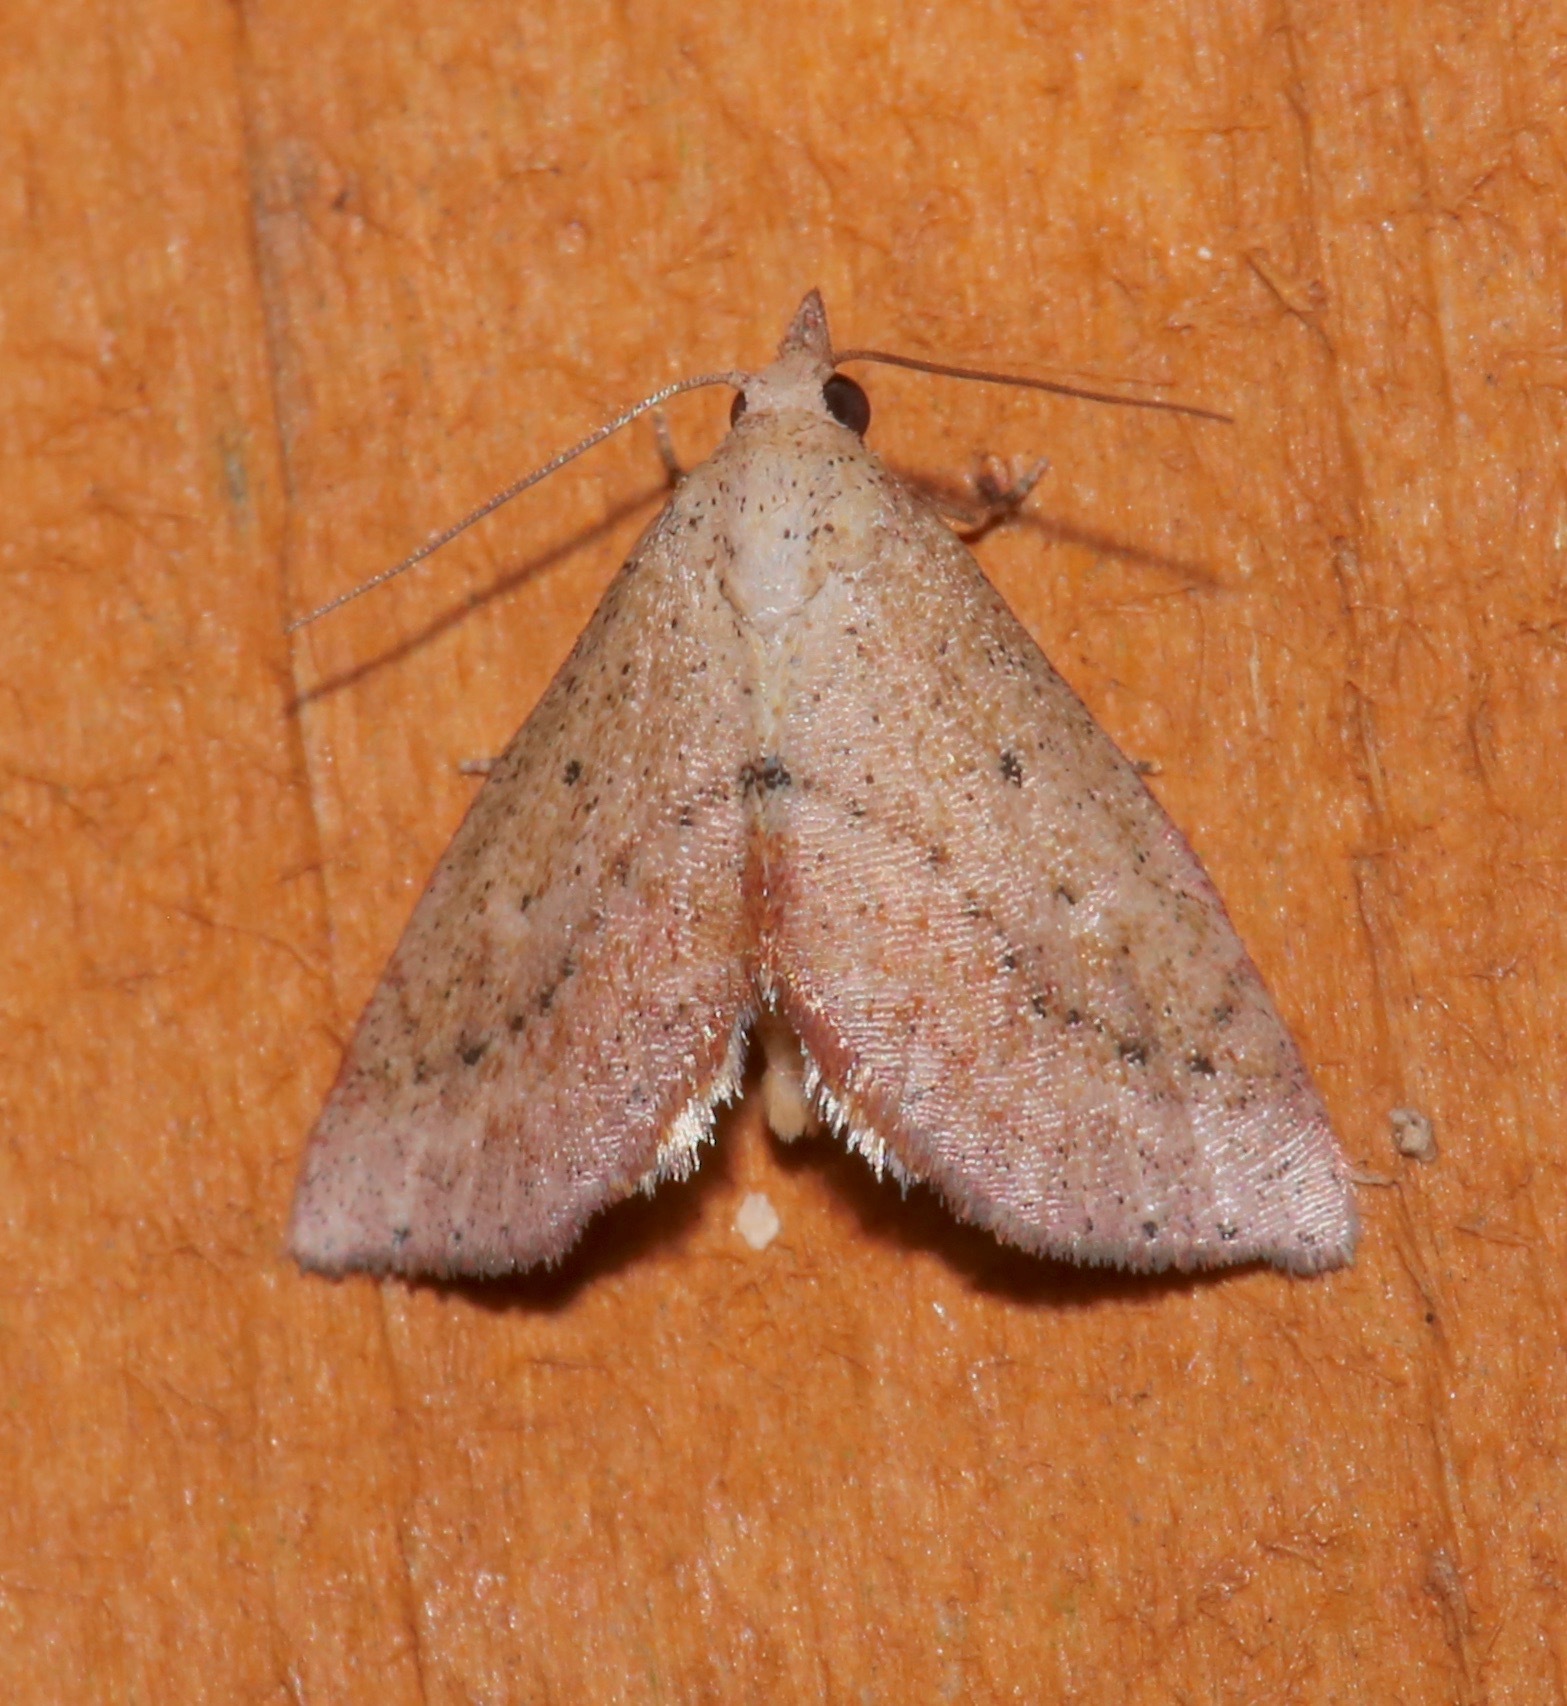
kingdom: Animalia
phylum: Arthropoda
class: Insecta
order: Lepidoptera
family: Noctuidae
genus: Proroblemma
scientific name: Proroblemma testa
